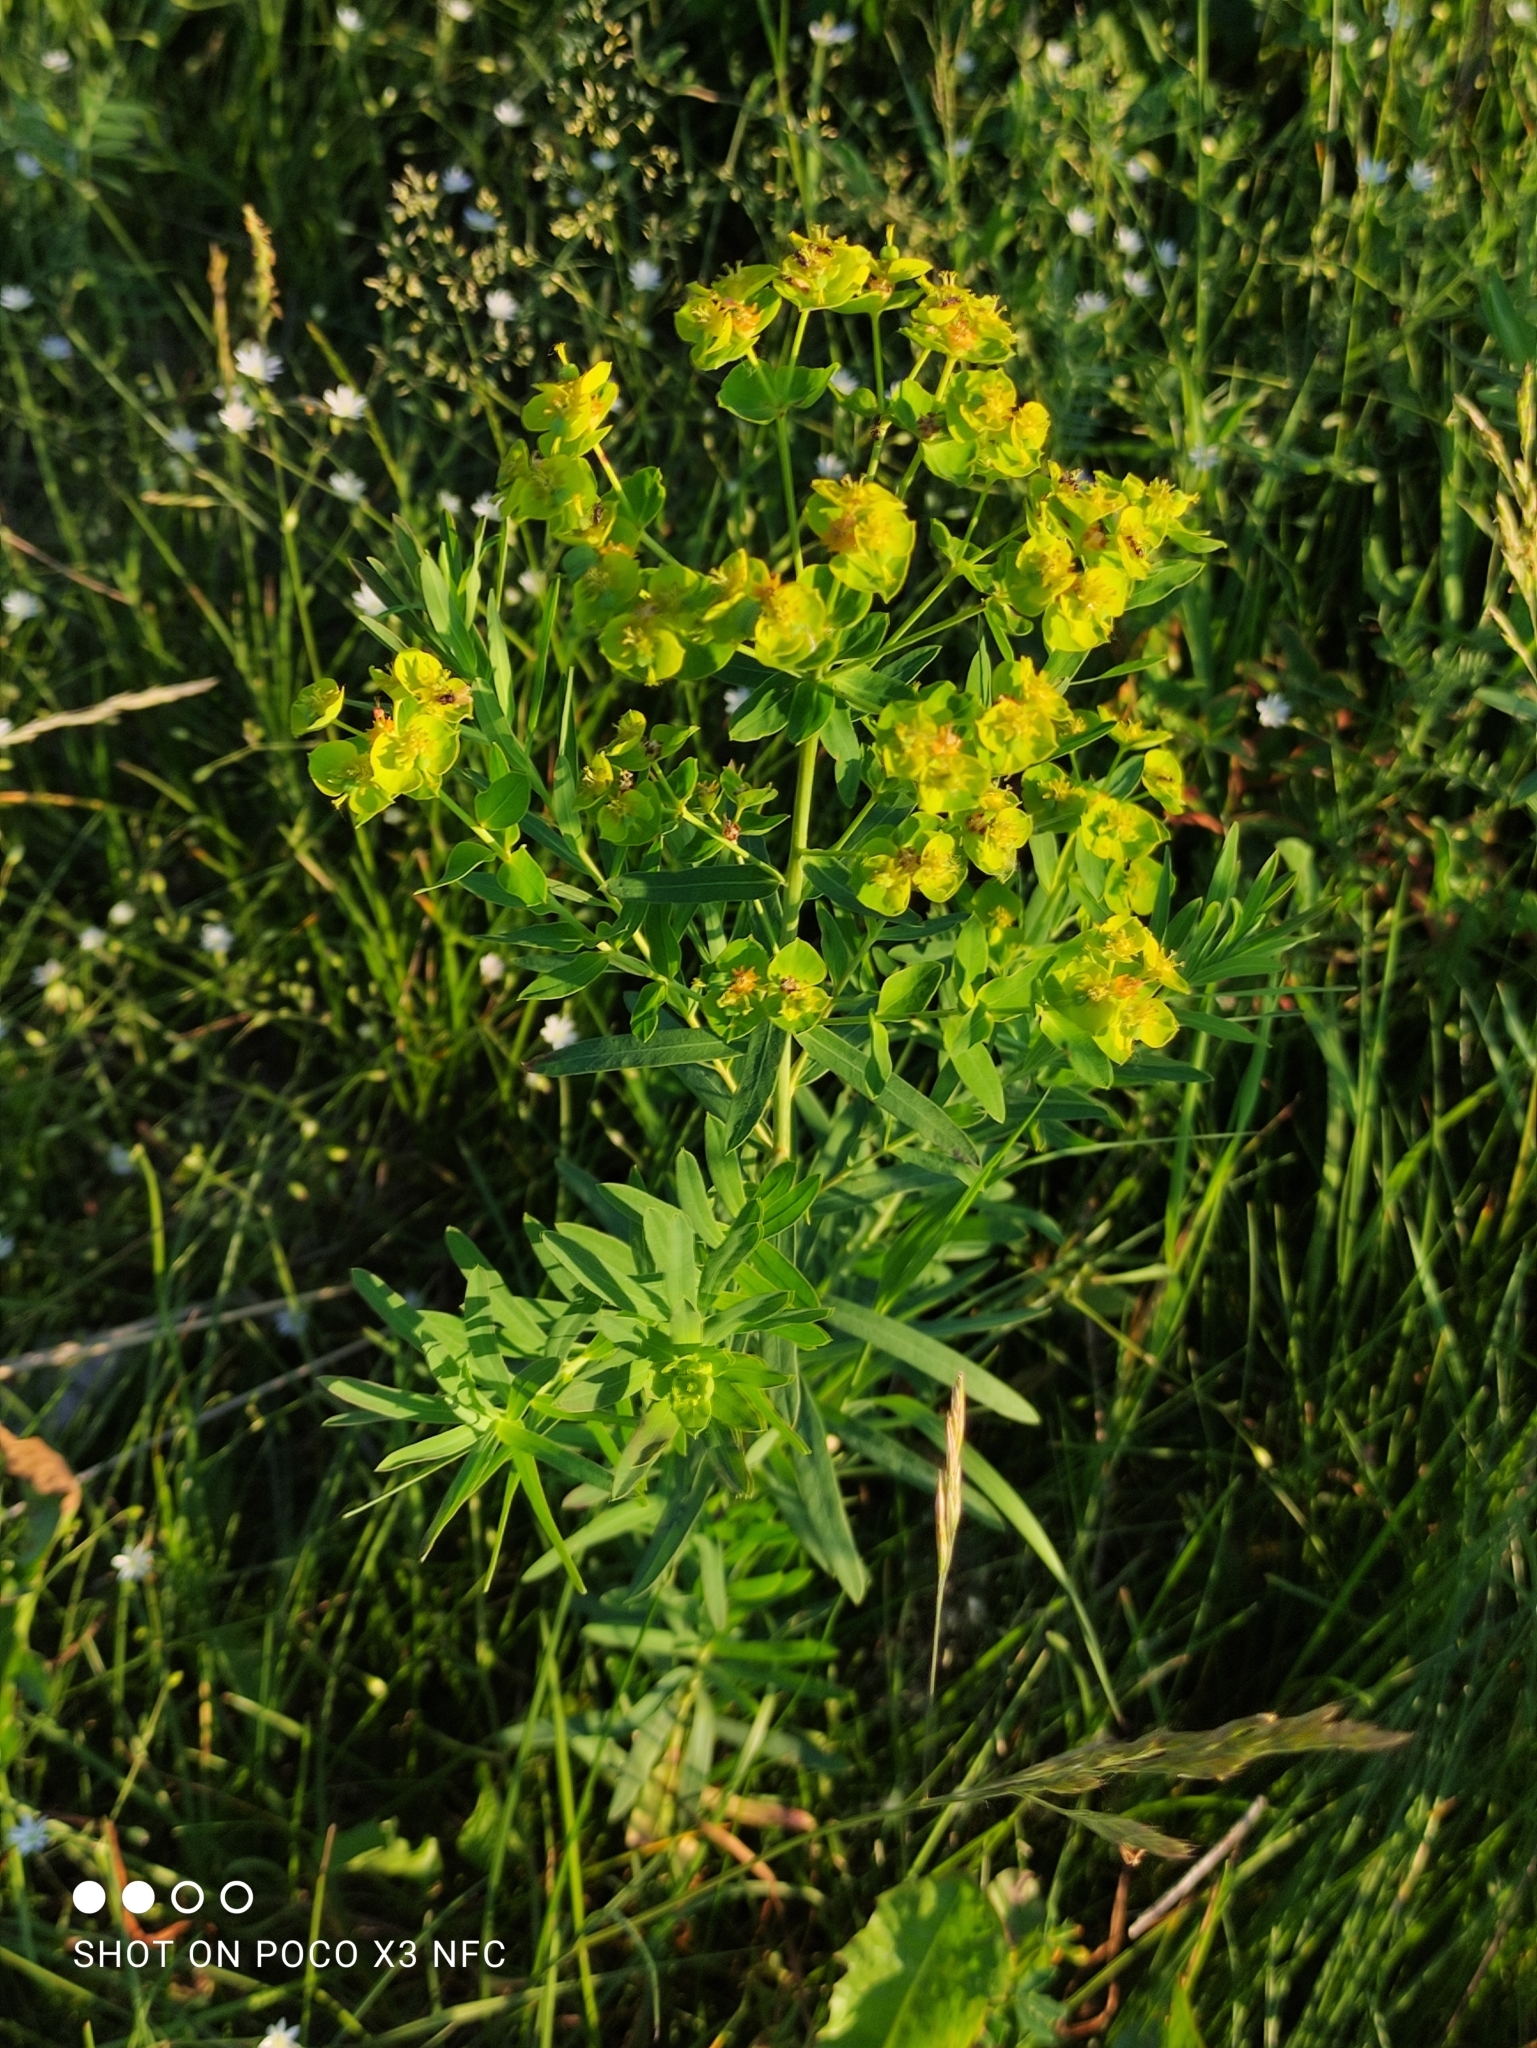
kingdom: Plantae
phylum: Tracheophyta
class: Magnoliopsida
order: Malpighiales
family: Euphorbiaceae
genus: Euphorbia
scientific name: Euphorbia virgata
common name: Leafy spurge
